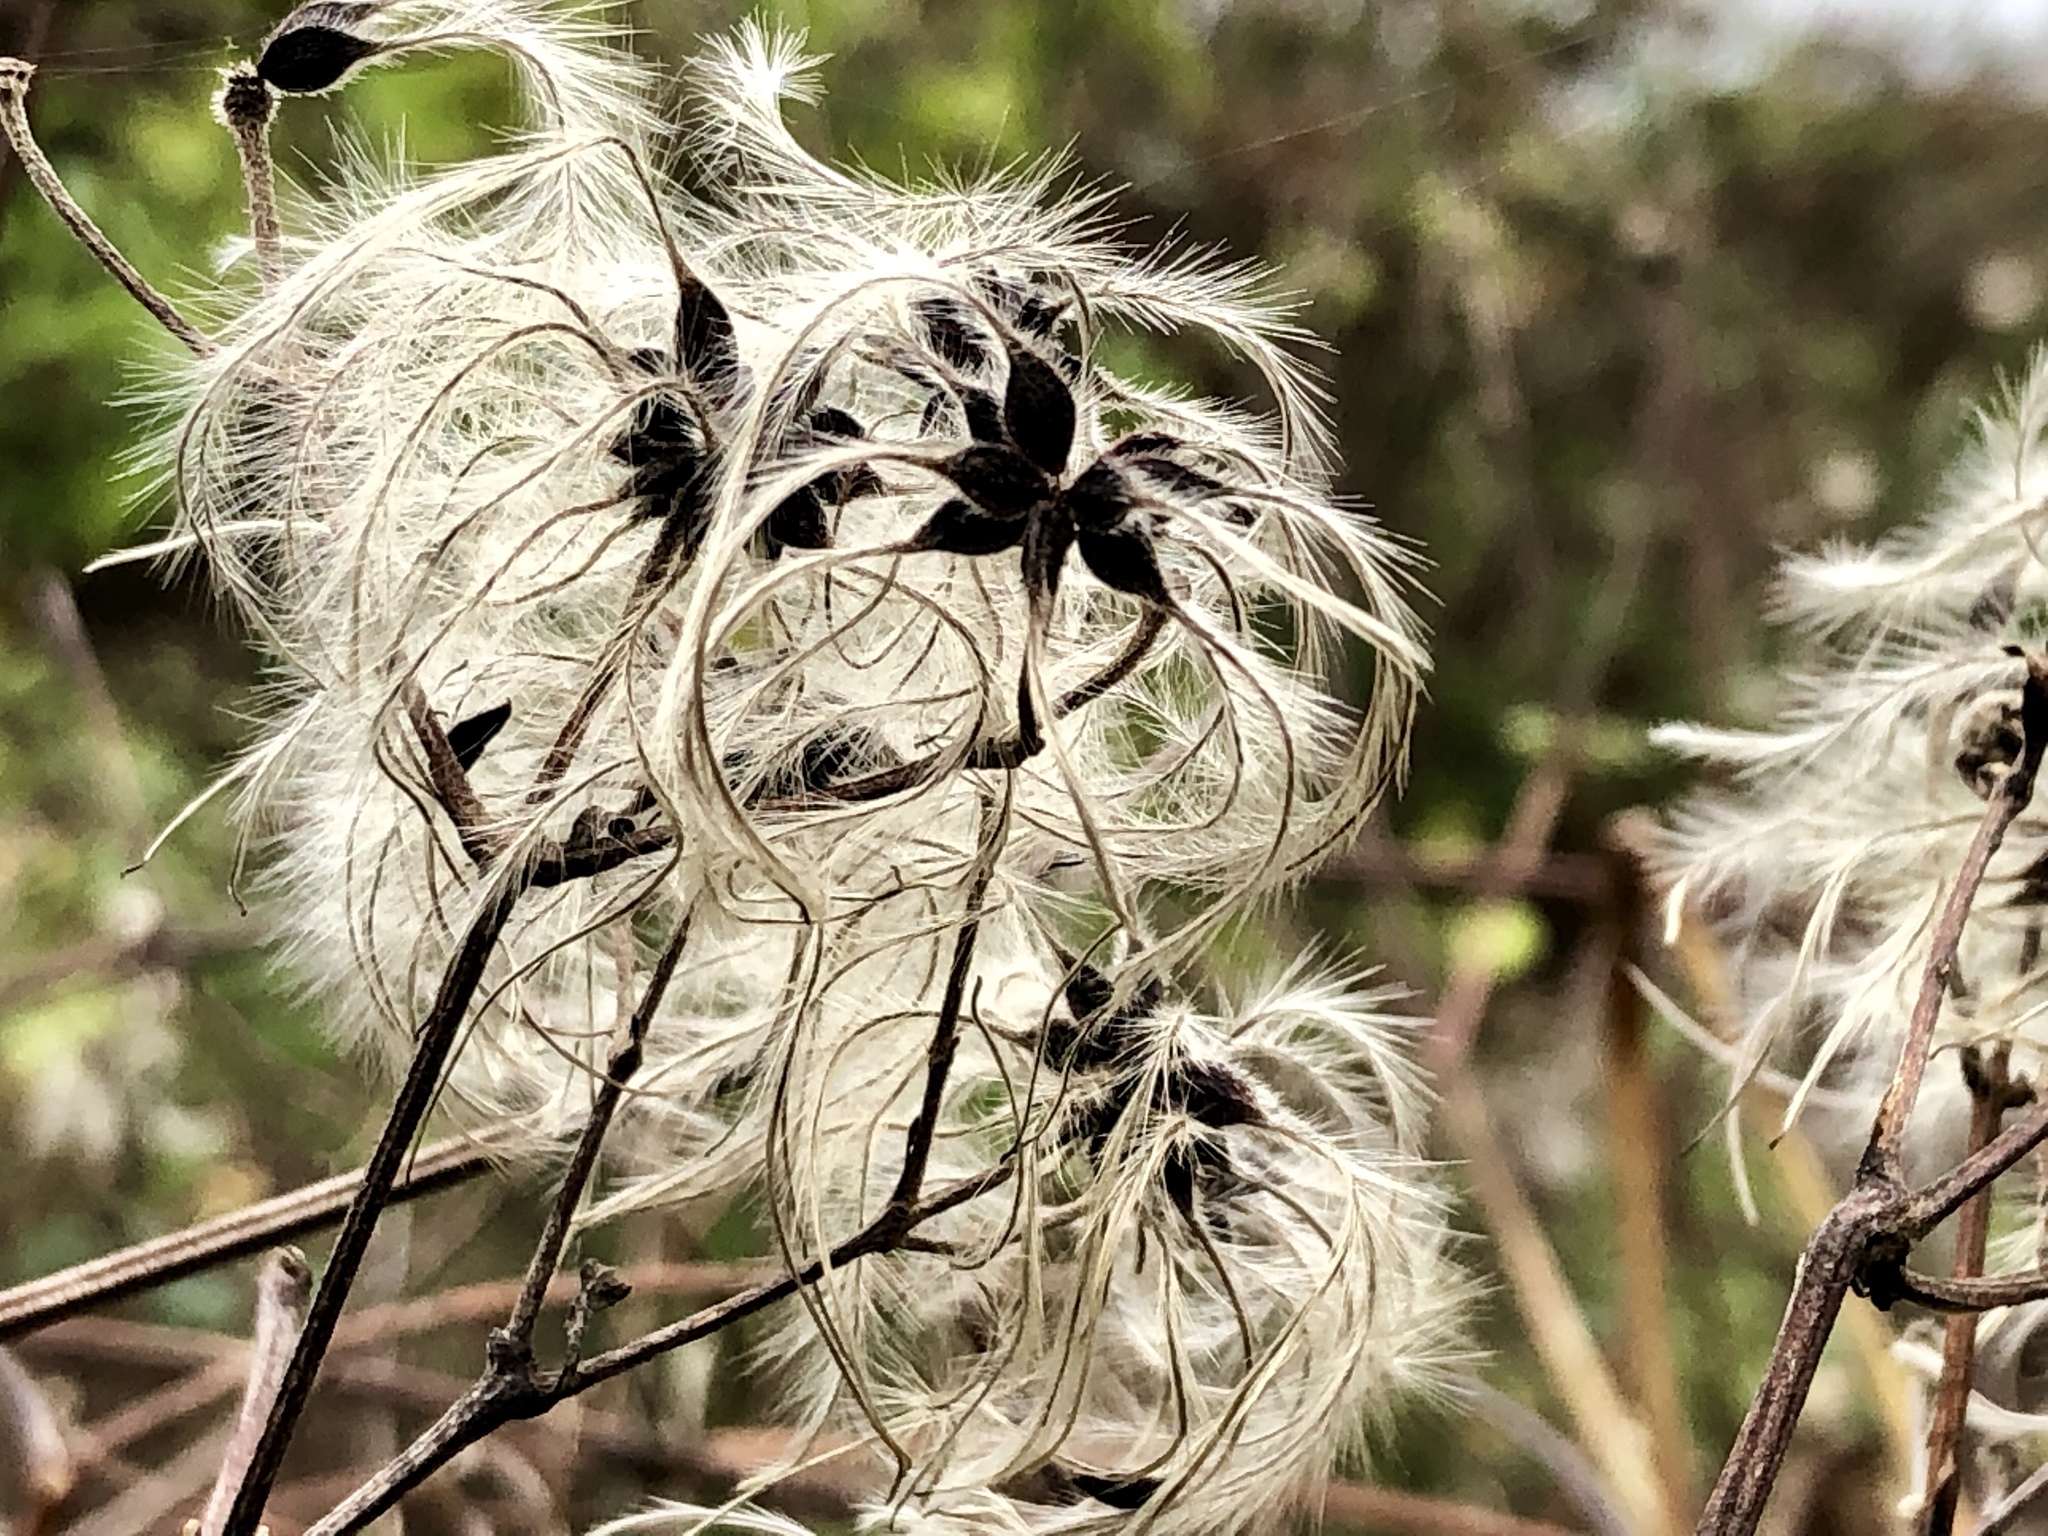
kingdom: Plantae
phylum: Tracheophyta
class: Magnoliopsida
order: Ranunculales
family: Ranunculaceae
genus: Clematis
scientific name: Clematis vitalba
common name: Evergreen clematis
